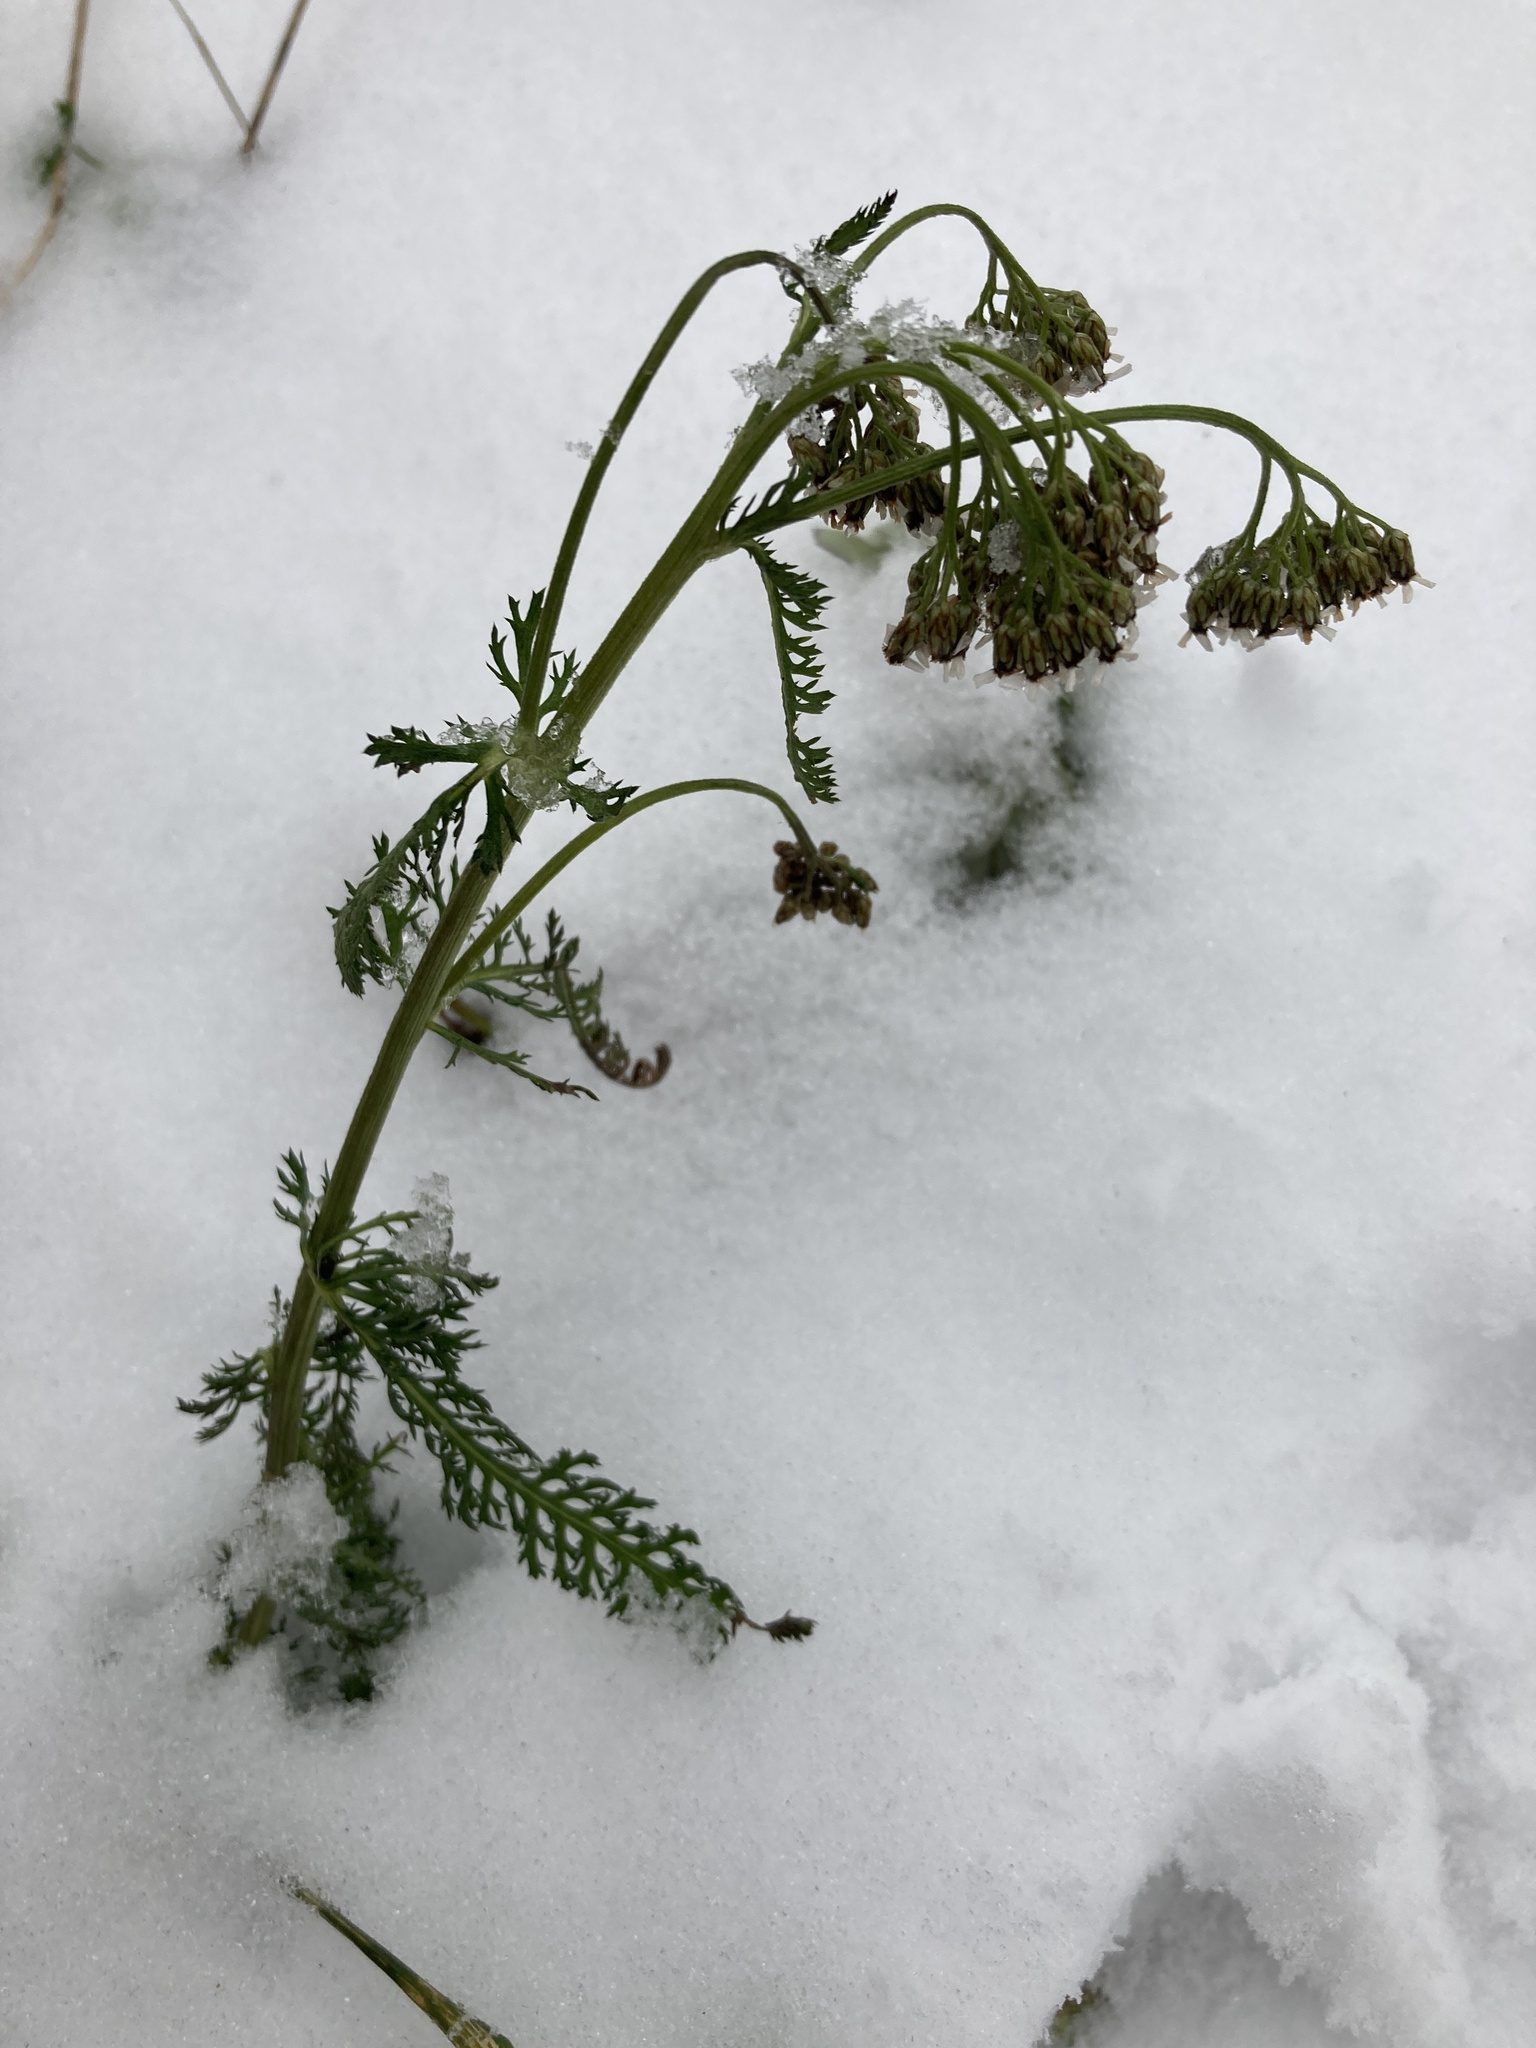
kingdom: Plantae
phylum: Tracheophyta
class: Magnoliopsida
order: Asterales
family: Asteraceae
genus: Achillea
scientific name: Achillea millefolium
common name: Yarrow
